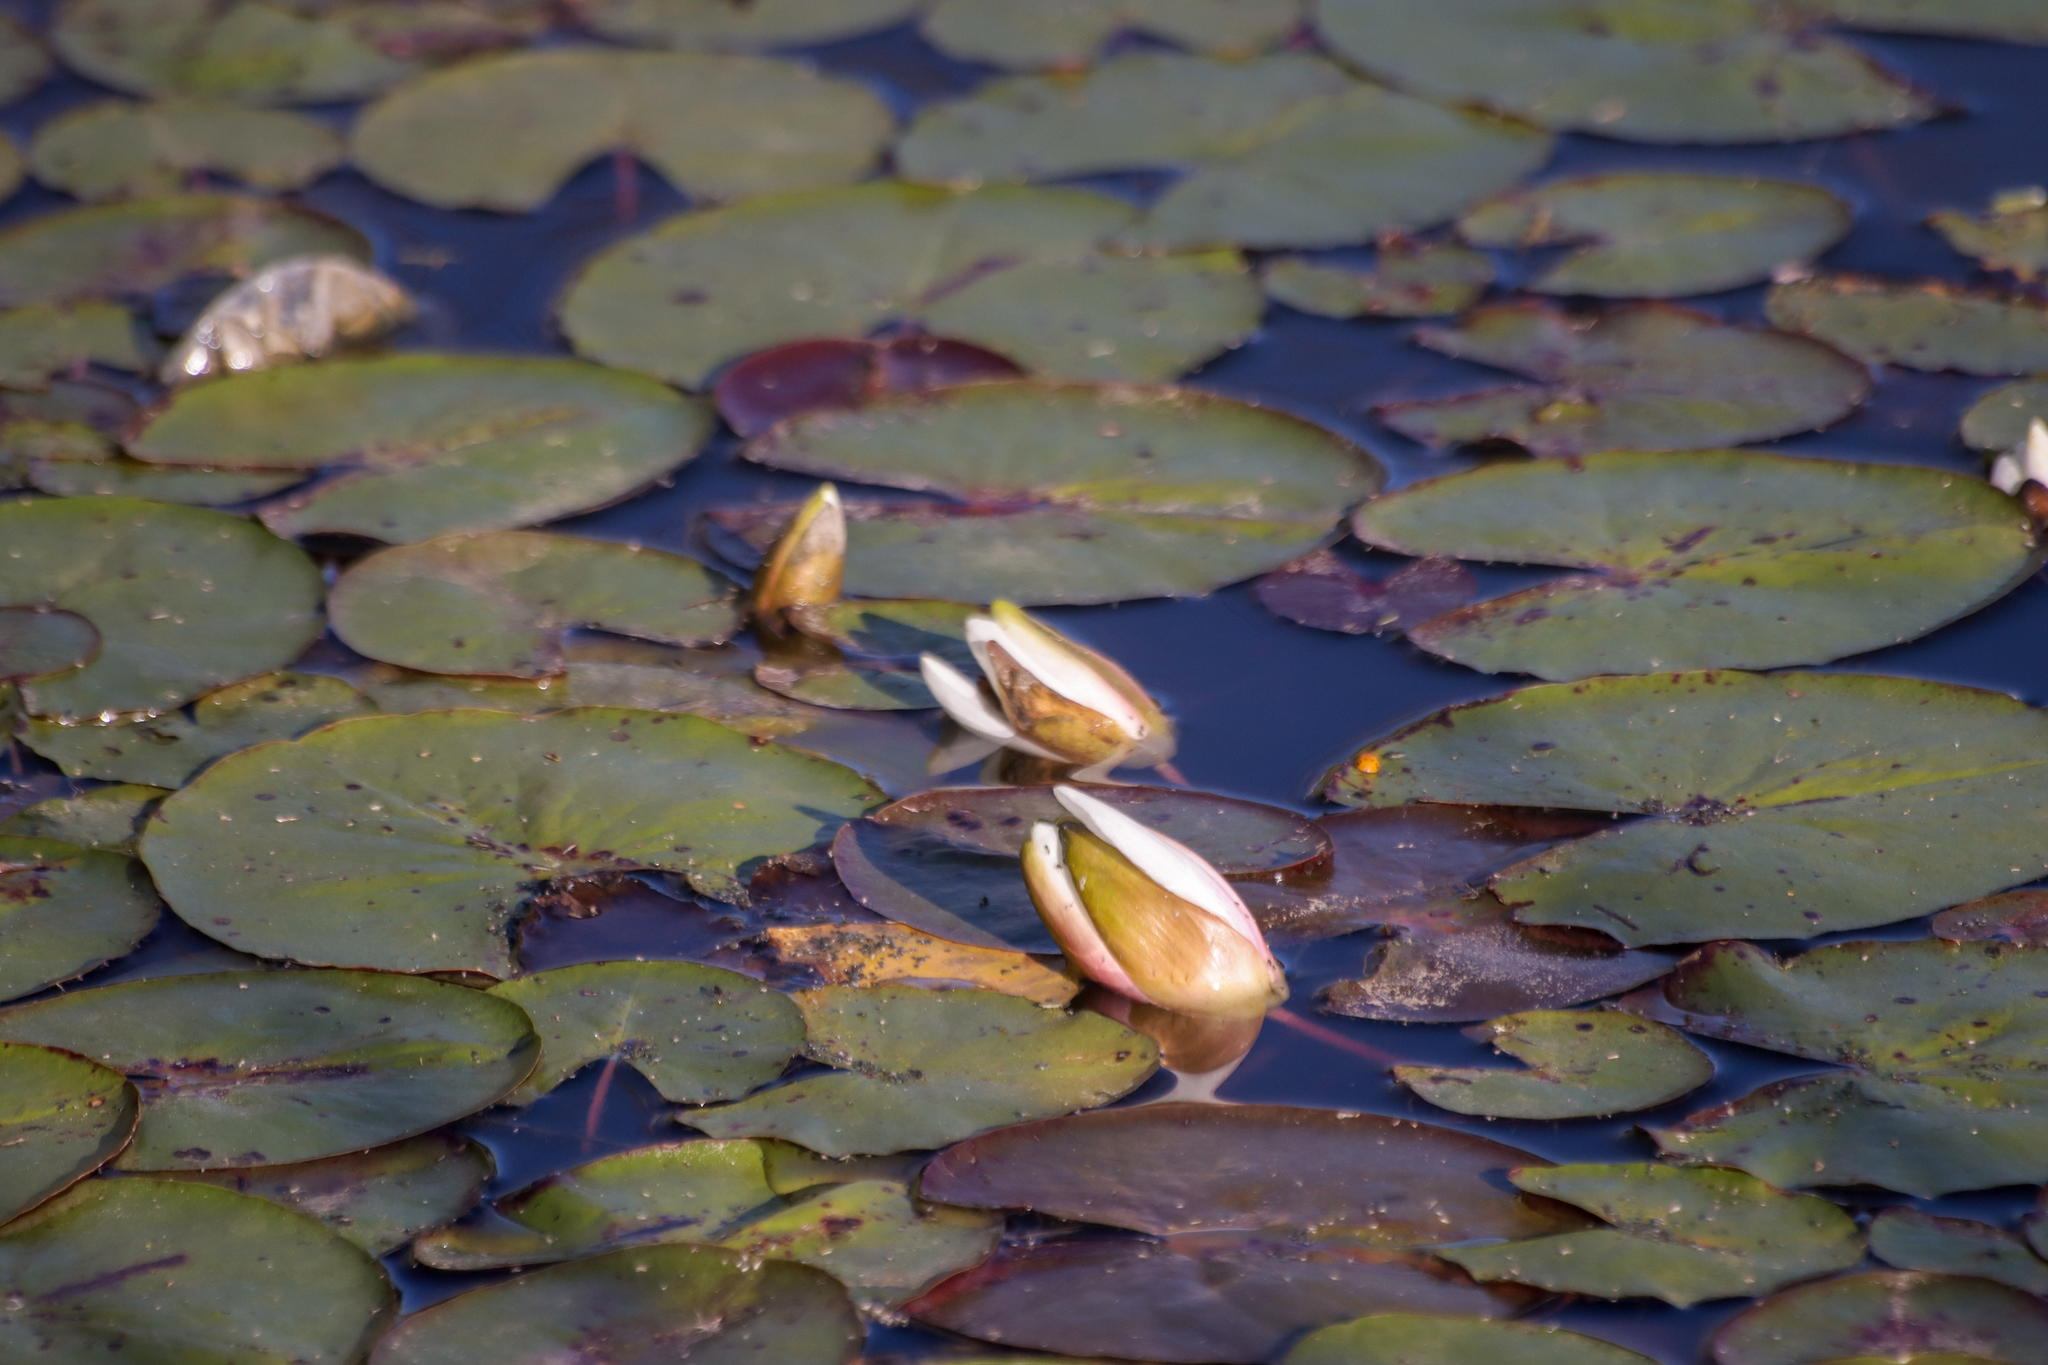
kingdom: Plantae
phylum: Tracheophyta
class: Magnoliopsida
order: Nymphaeales
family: Nymphaeaceae
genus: Nymphaea
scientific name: Nymphaea odorata
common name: Fragrant water-lily
